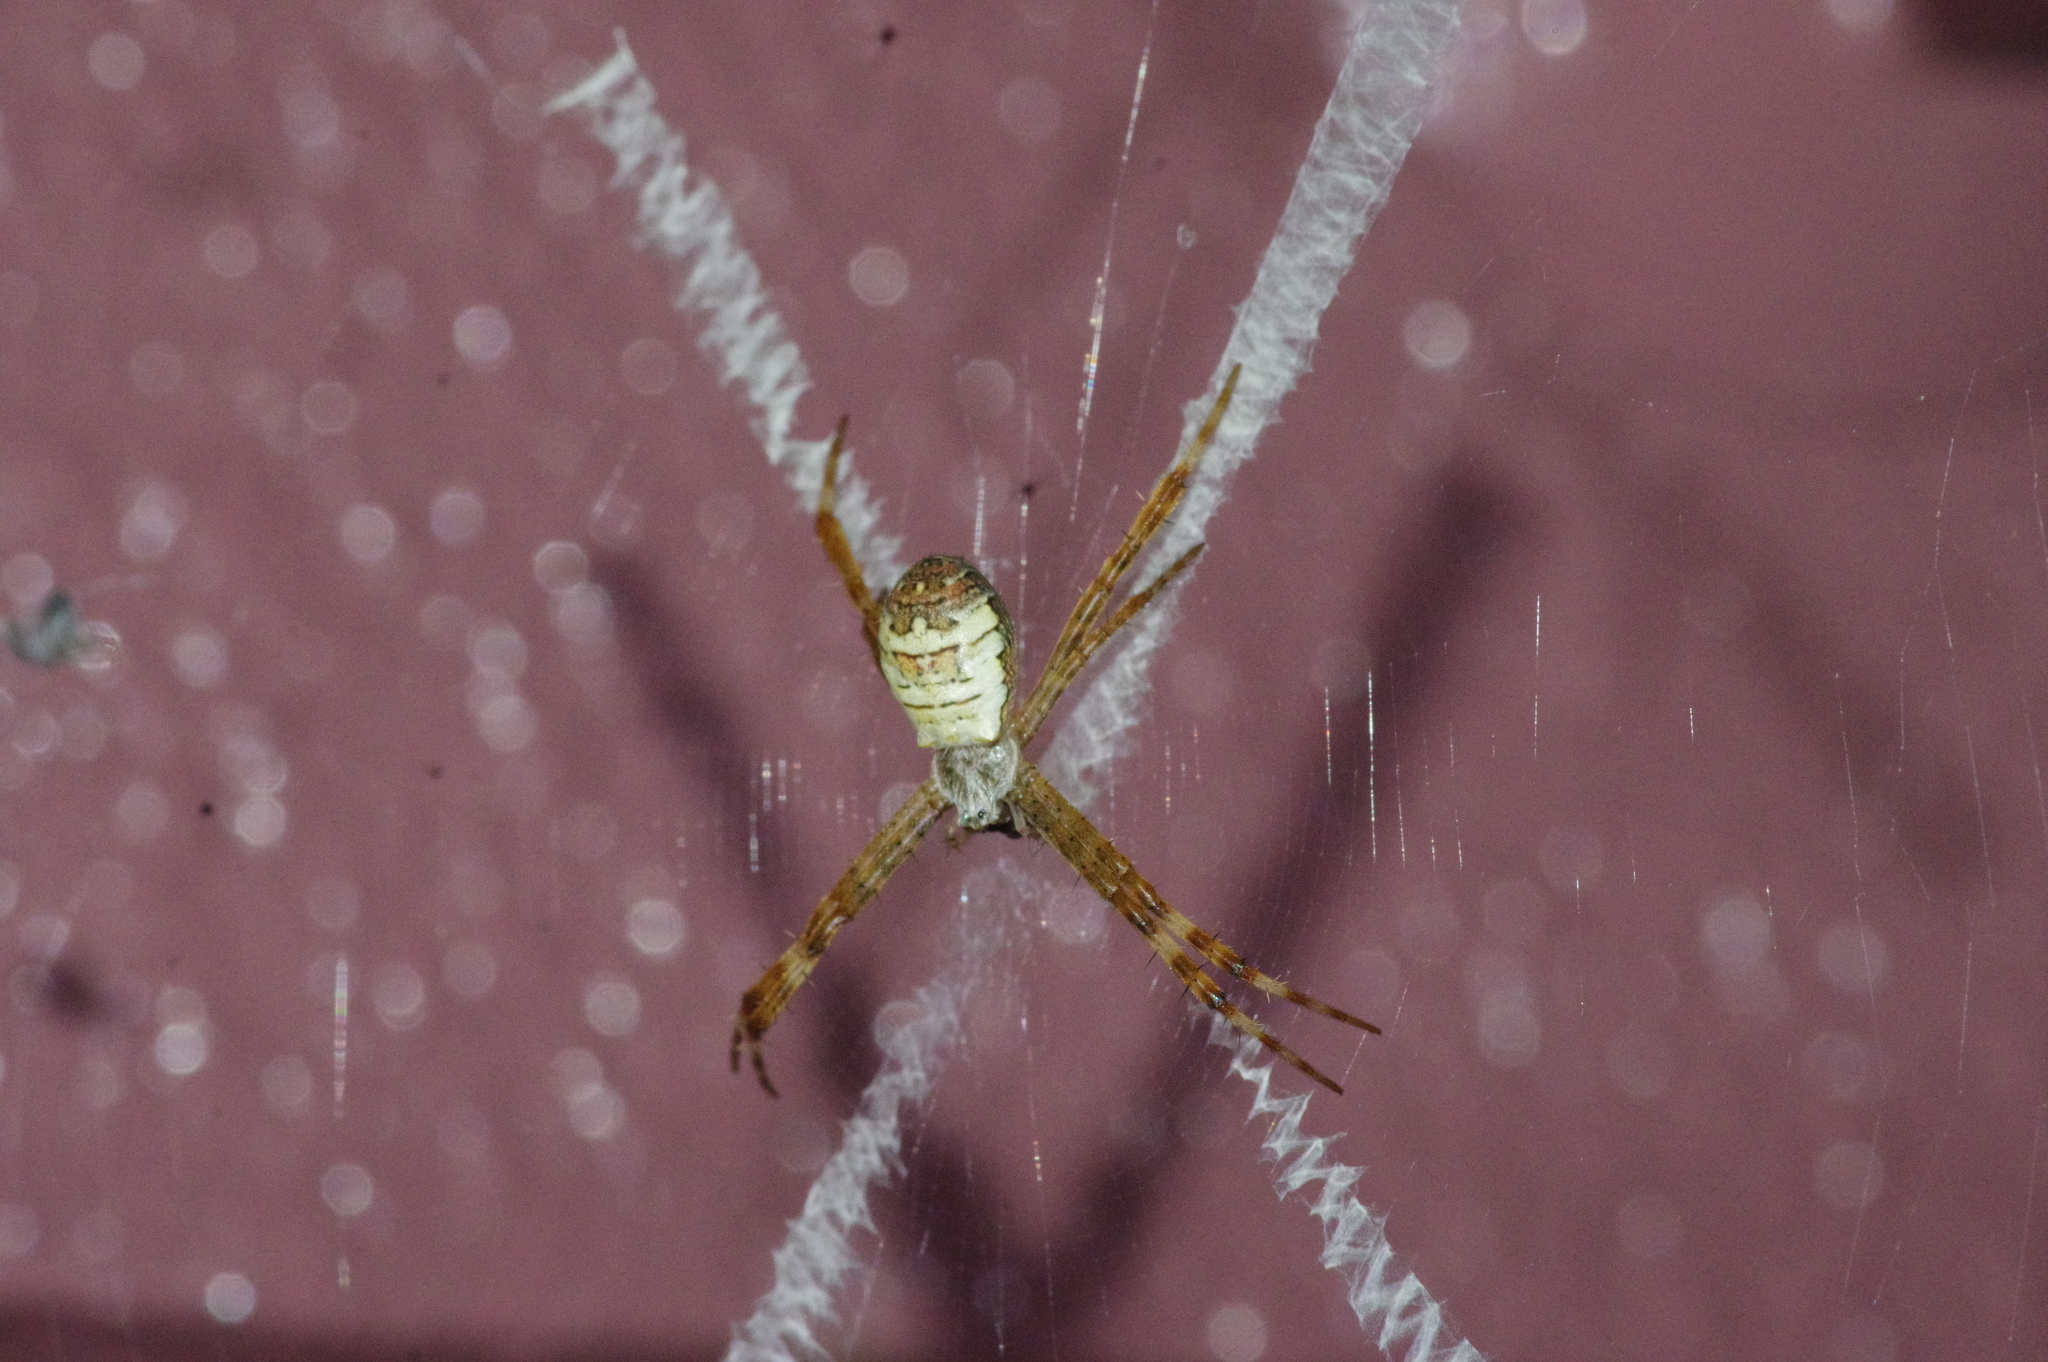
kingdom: Animalia
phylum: Arthropoda
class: Arachnida
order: Araneae
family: Araneidae
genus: Argiope
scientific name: Argiope minuta
